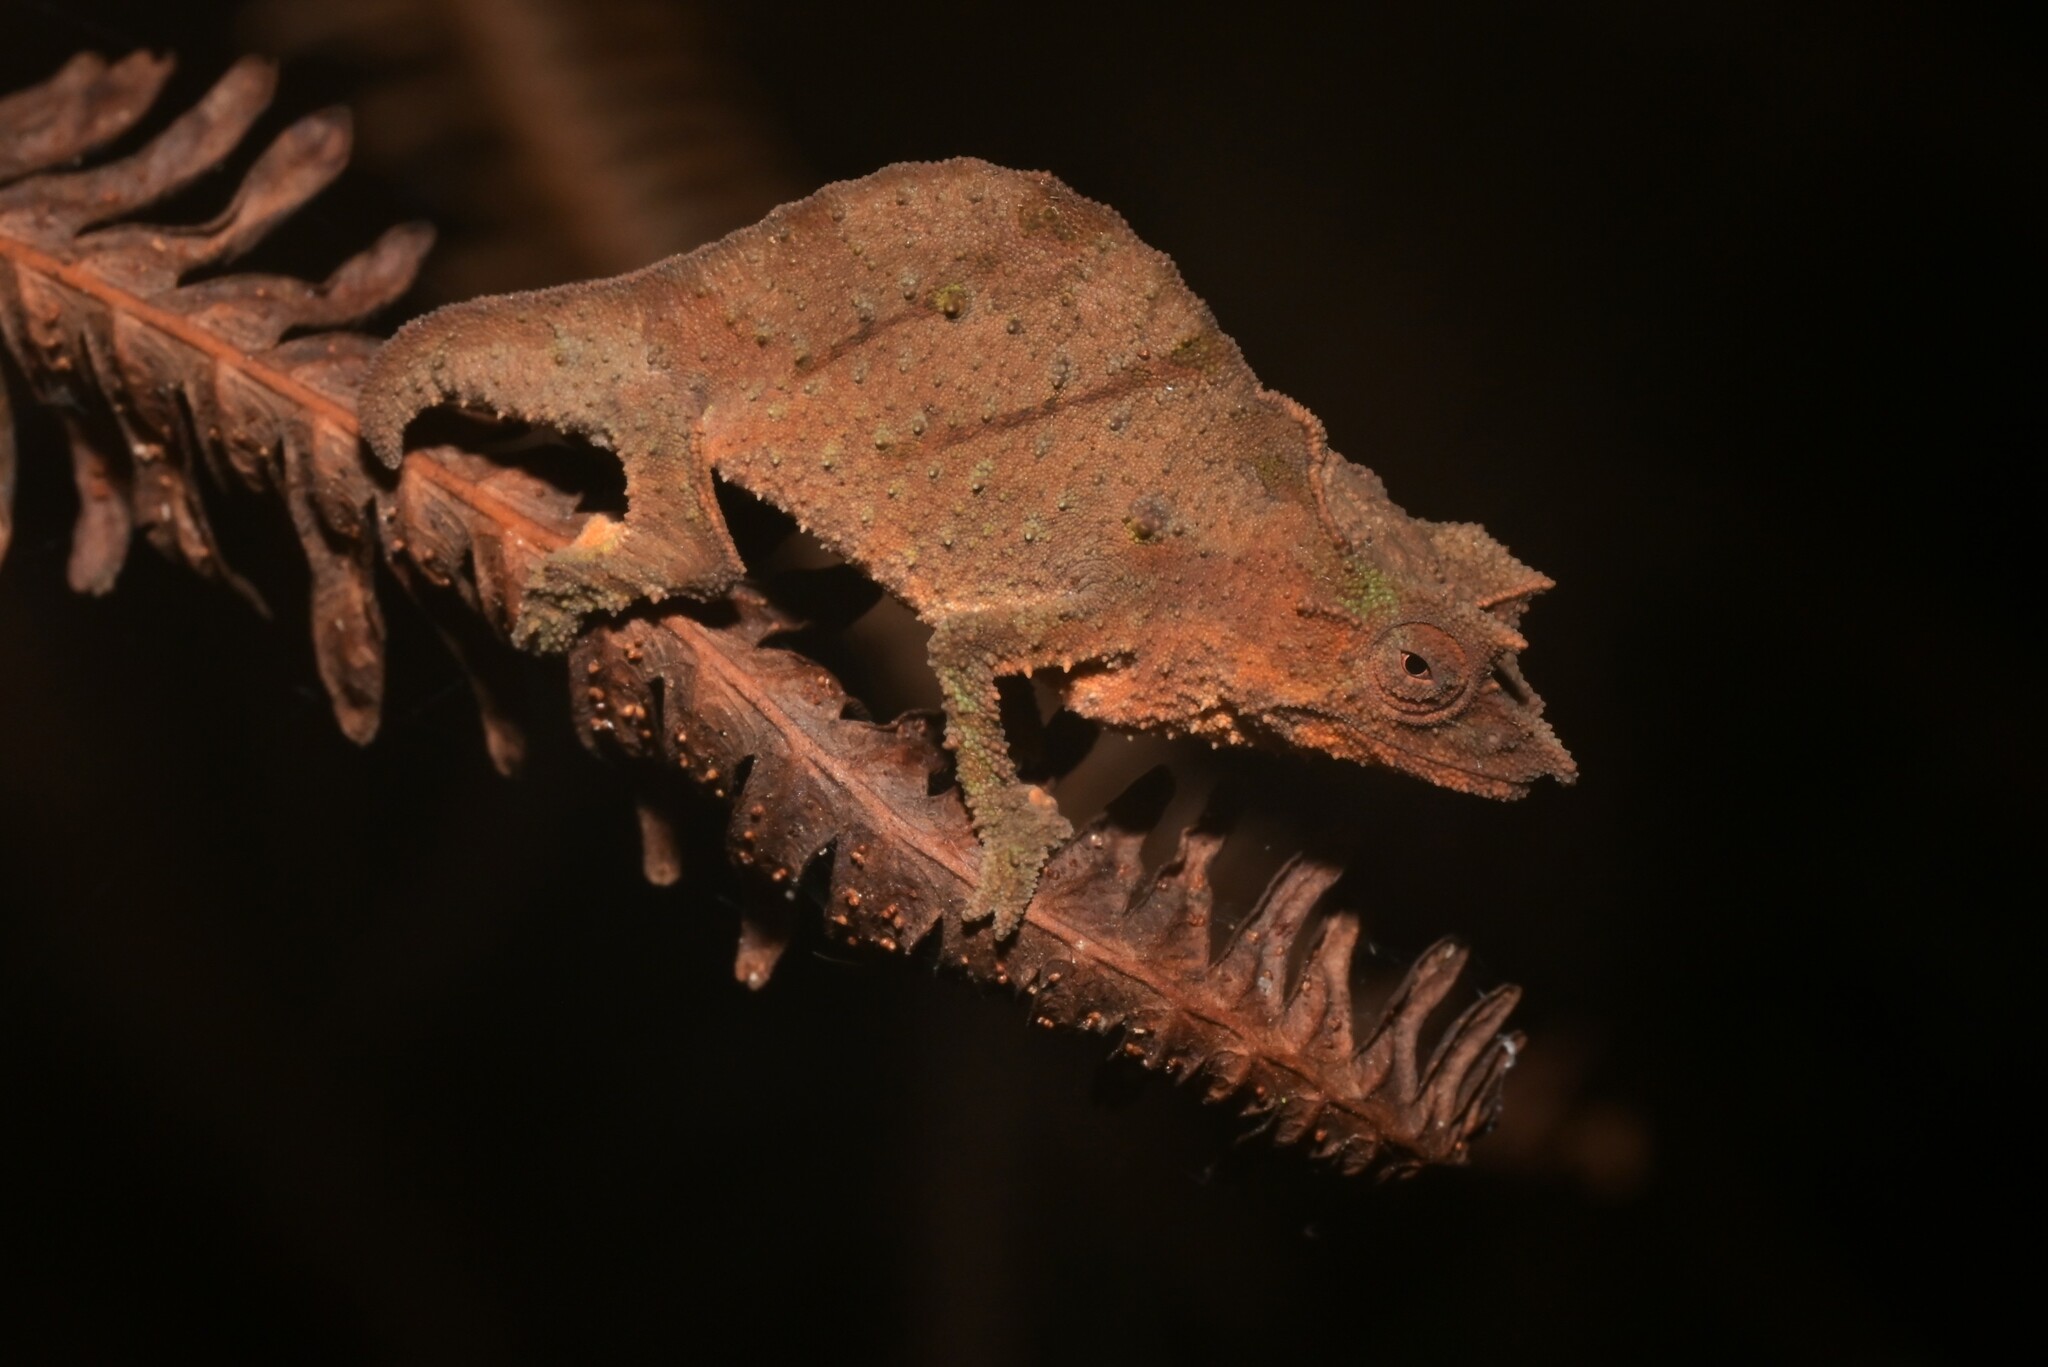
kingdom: Animalia
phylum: Chordata
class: Squamata
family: Chamaeleonidae
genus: Rhampholeon
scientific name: Rhampholeon moyeri
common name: Moyer's pygmy chameleon
